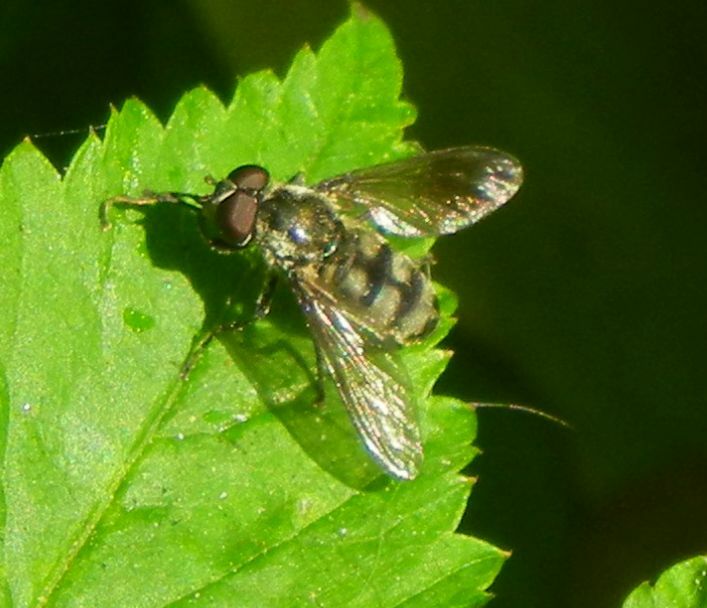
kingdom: Animalia
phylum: Arthropoda
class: Insecta
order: Diptera
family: Syrphidae
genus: Portevinia
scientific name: Portevinia maculata
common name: Ramson's hoverfly
